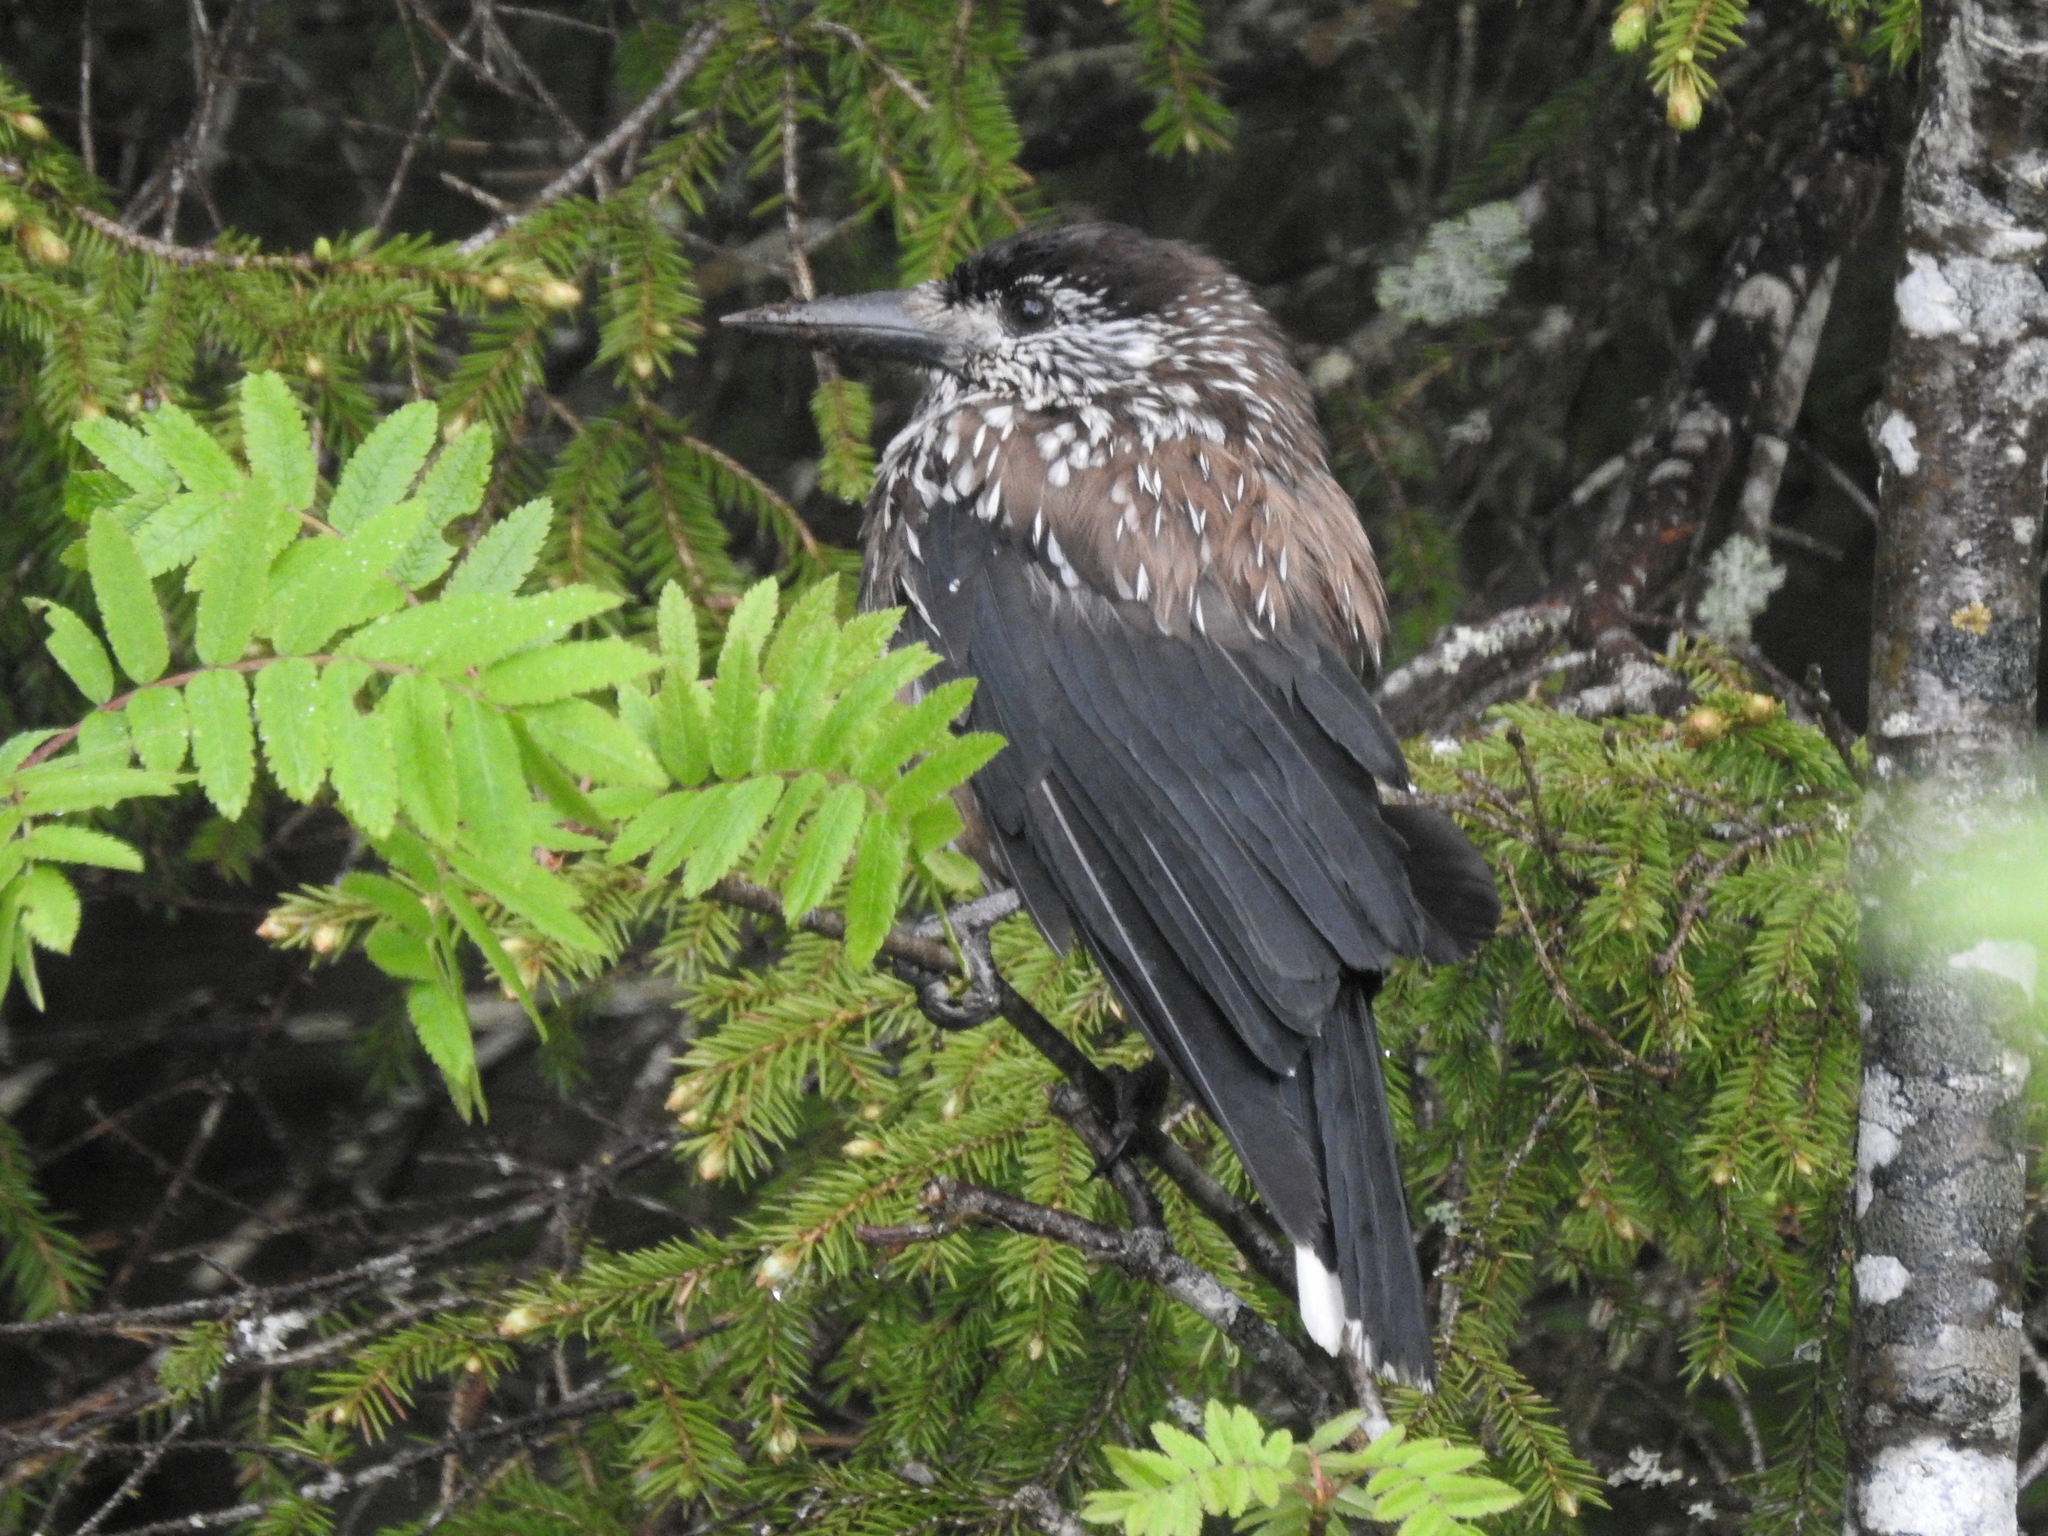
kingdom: Animalia
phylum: Chordata
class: Aves
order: Passeriformes
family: Corvidae
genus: Nucifraga
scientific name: Nucifraga caryocatactes
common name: Spotted nutcracker
